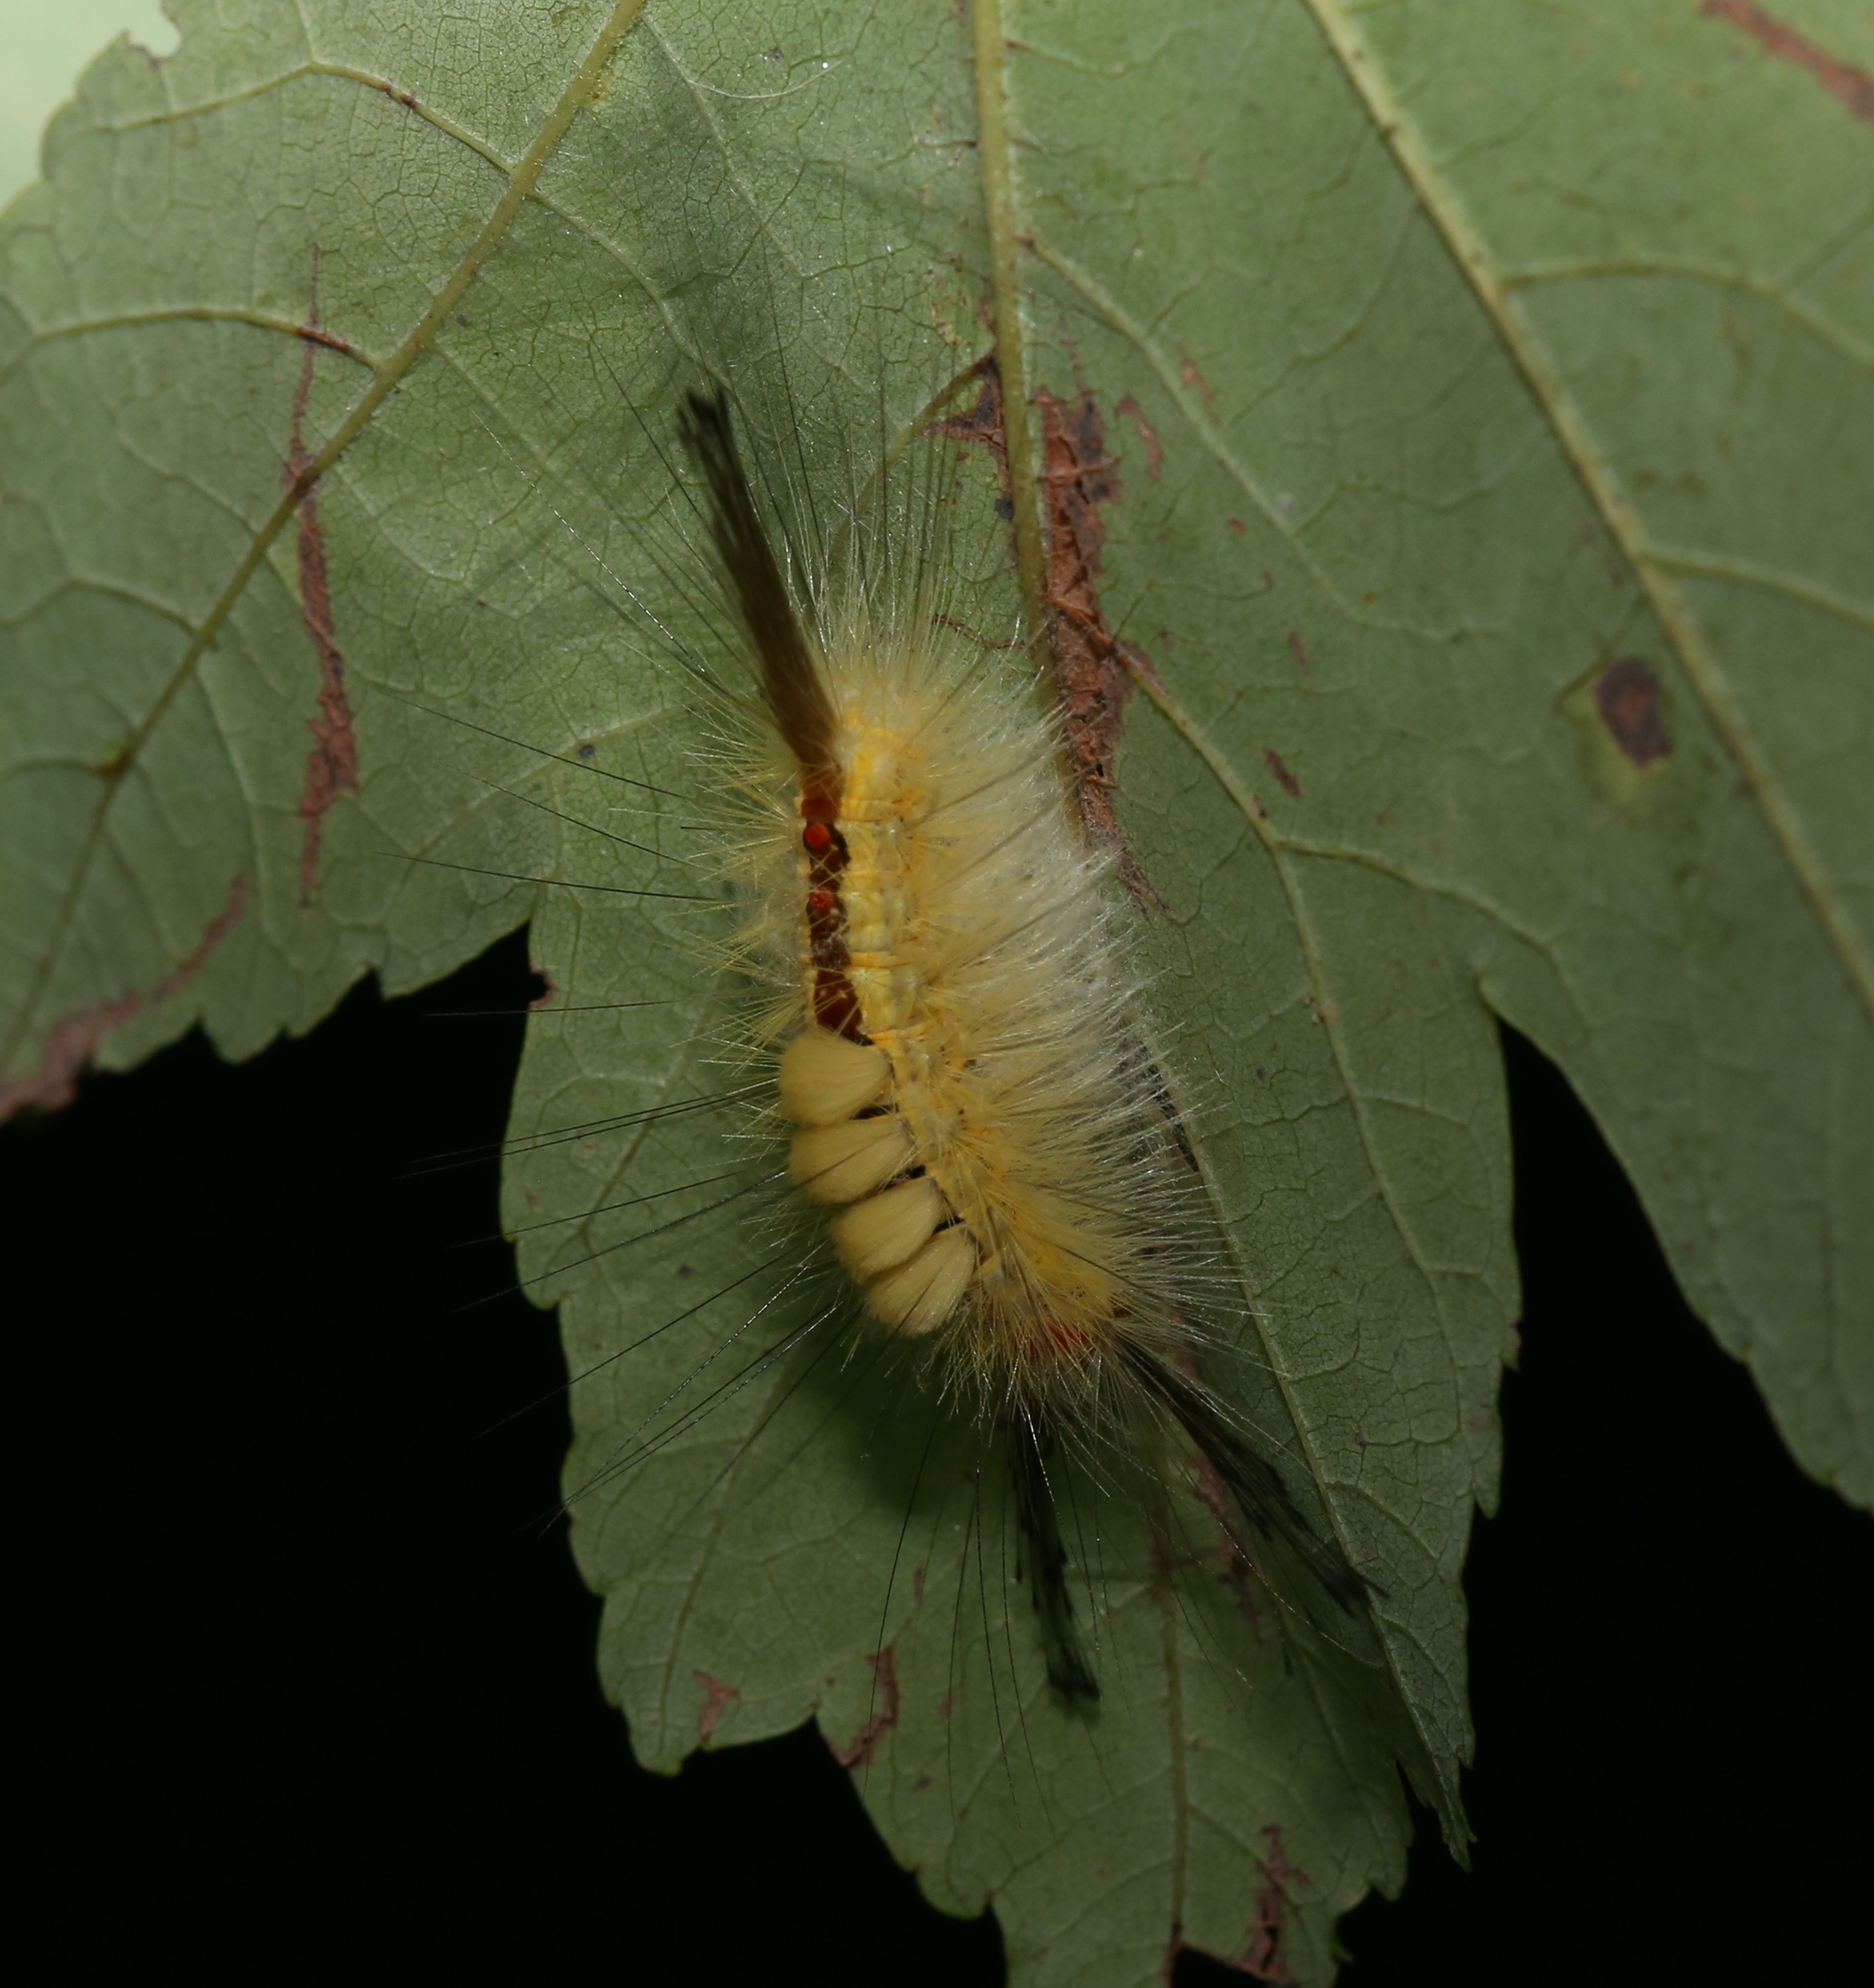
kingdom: Animalia
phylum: Arthropoda
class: Insecta
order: Lepidoptera
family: Erebidae
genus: Orgyia
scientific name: Orgyia leucostigma
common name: White-marked tussock moth
